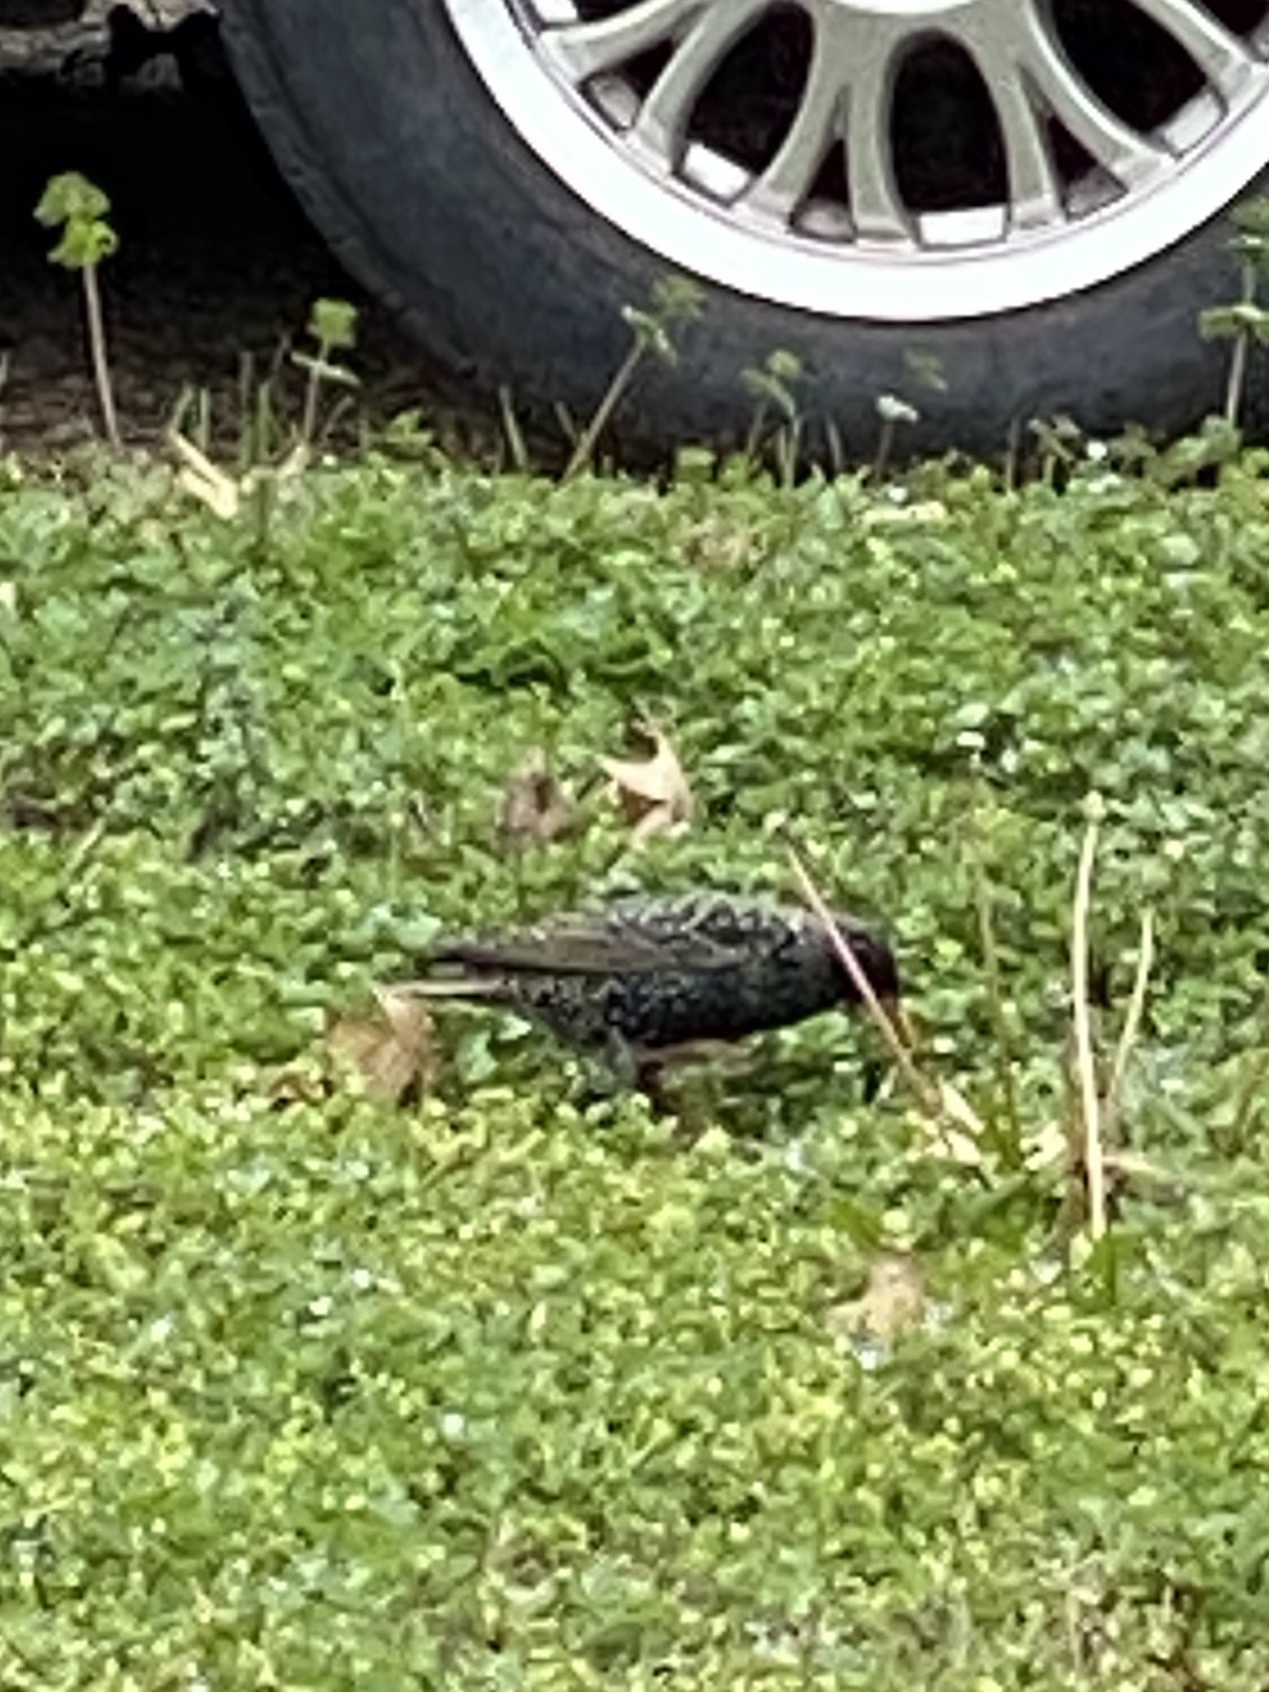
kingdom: Animalia
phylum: Chordata
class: Aves
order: Passeriformes
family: Sturnidae
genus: Sturnus
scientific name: Sturnus vulgaris
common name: Common starling
